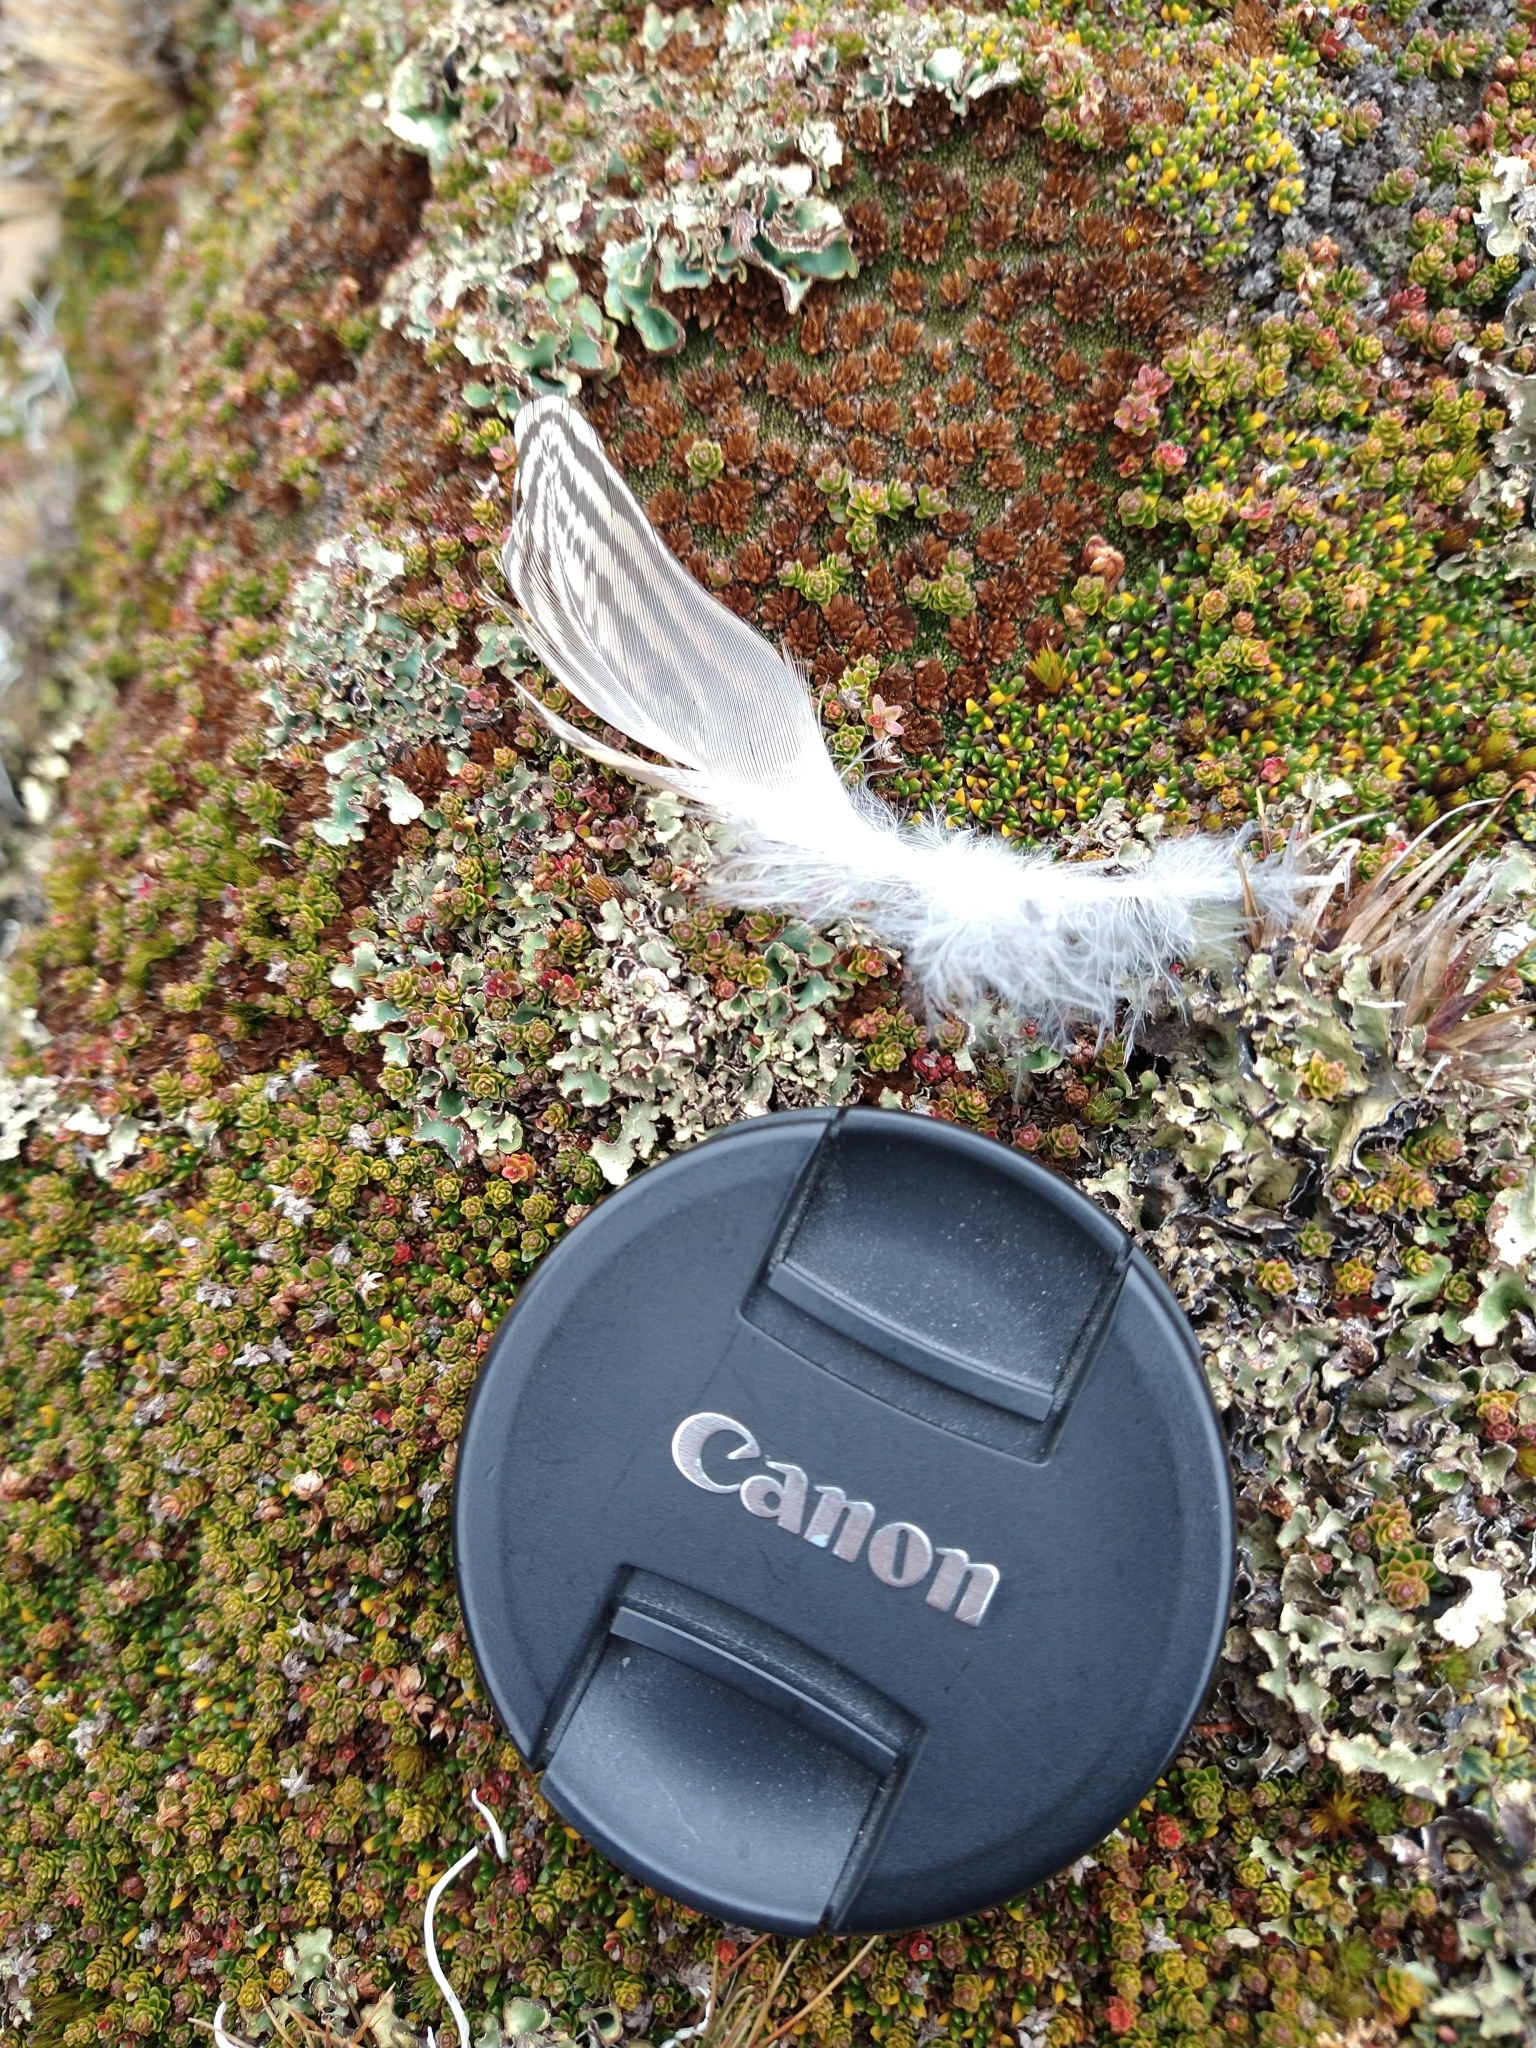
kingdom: Animalia
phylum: Chordata
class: Aves
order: Charadriiformes
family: Thinocoridae
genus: Attagis
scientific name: Attagis malouinus
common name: White-bellied seedsnipe
